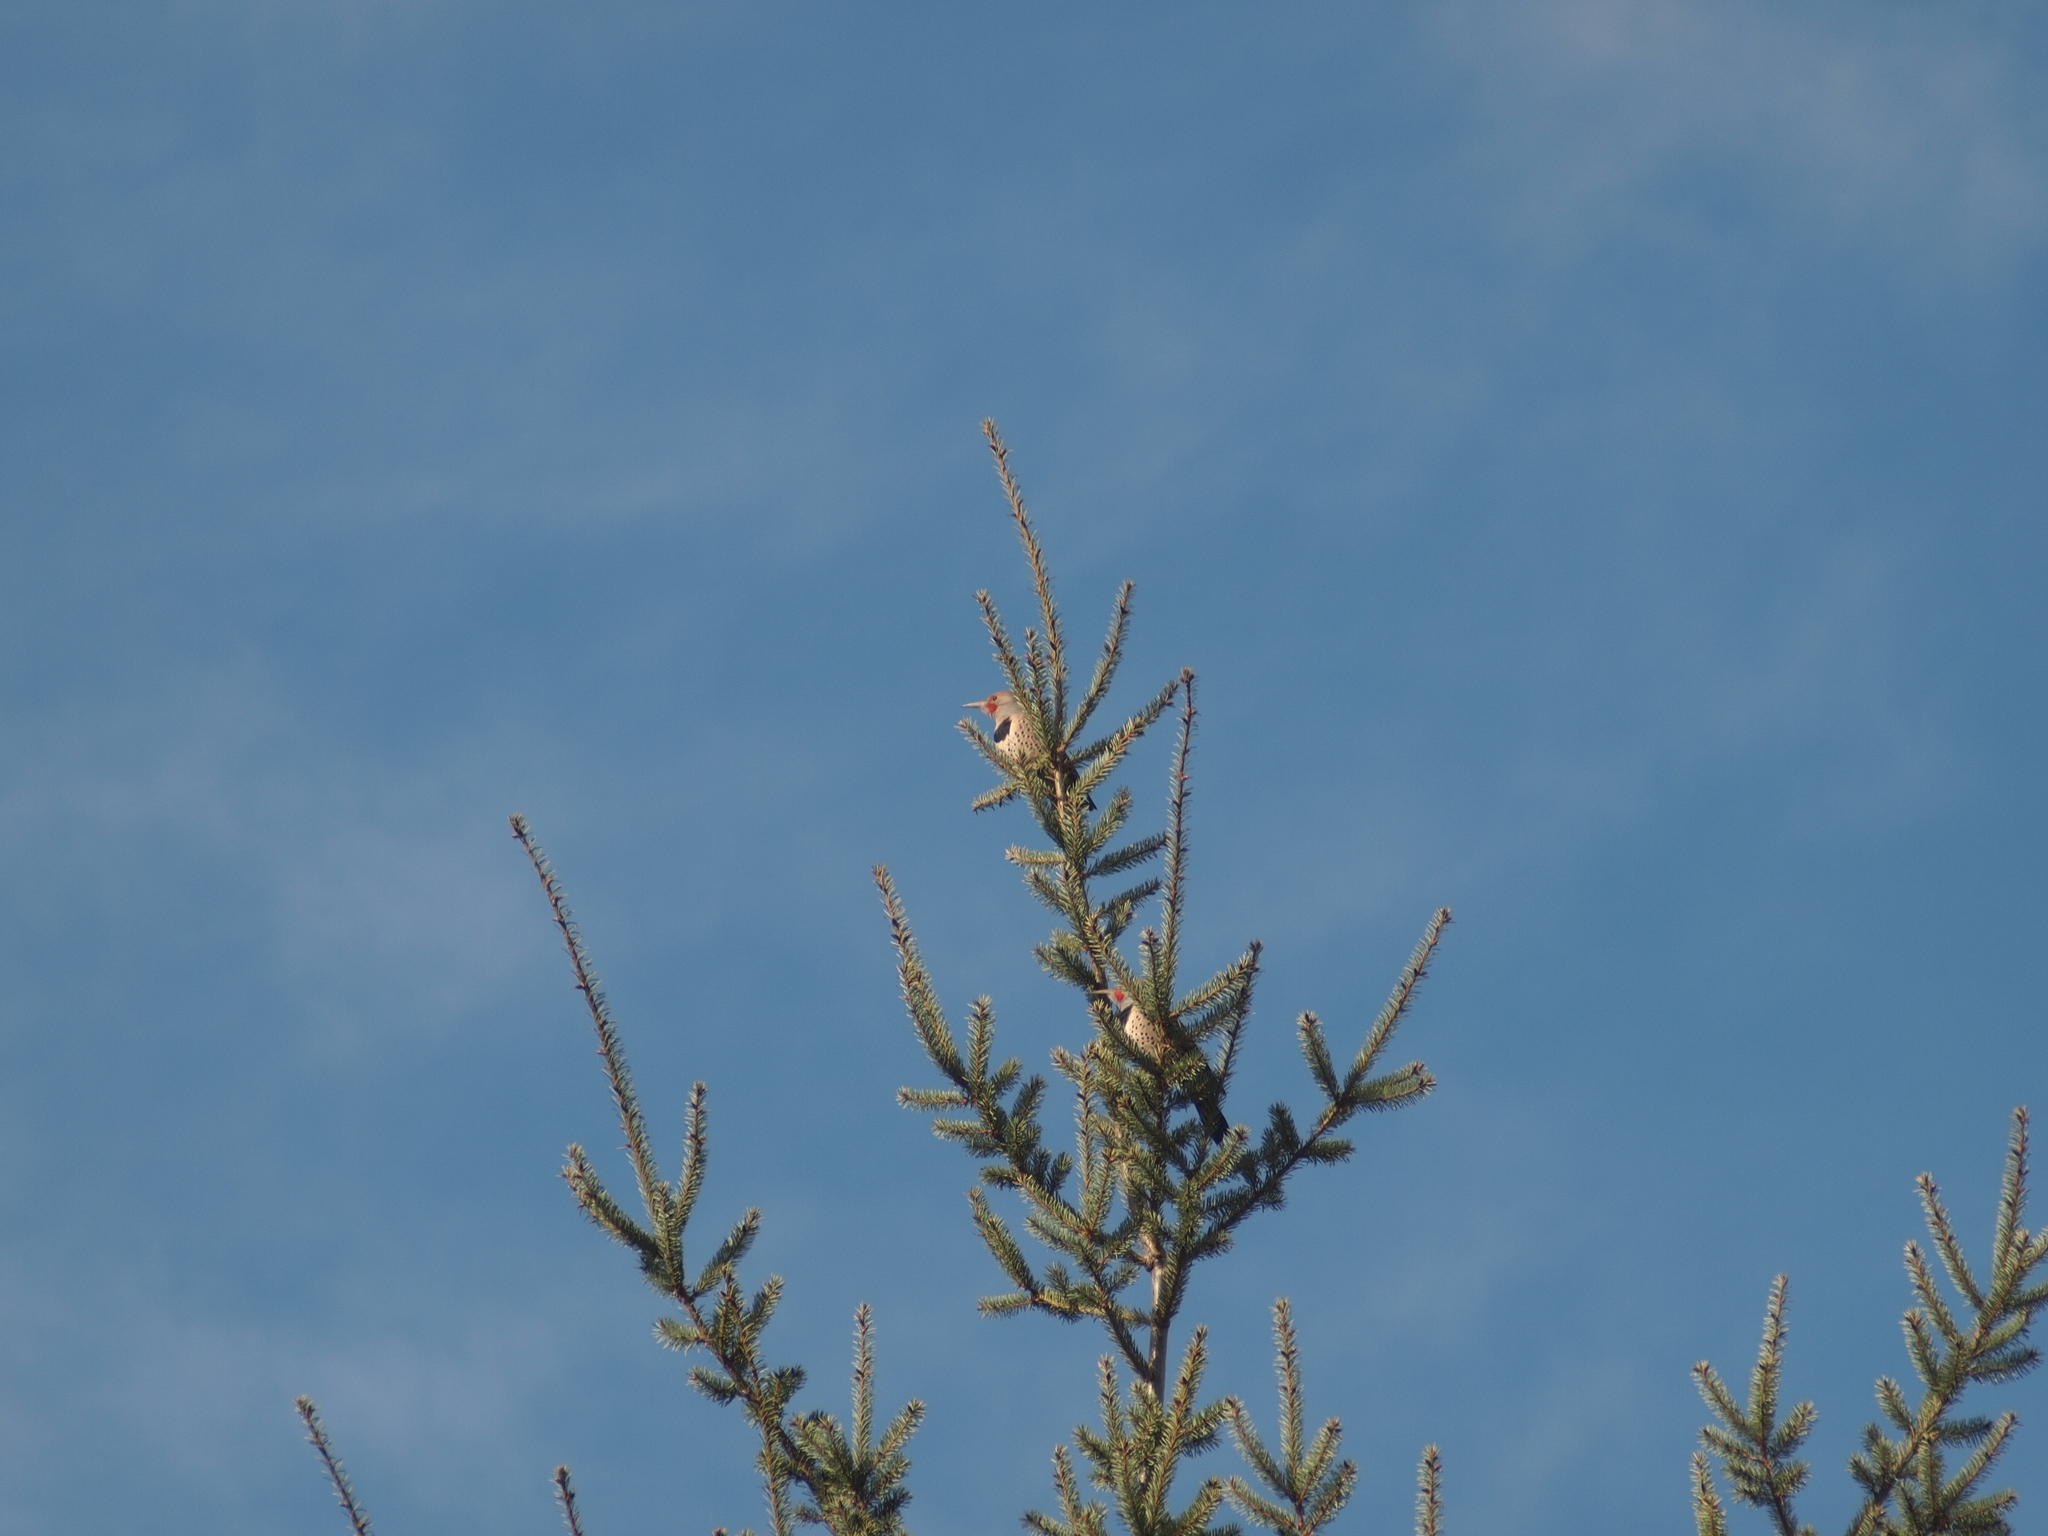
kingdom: Animalia
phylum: Chordata
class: Aves
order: Piciformes
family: Picidae
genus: Colaptes
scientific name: Colaptes auratus
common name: Northern flicker
